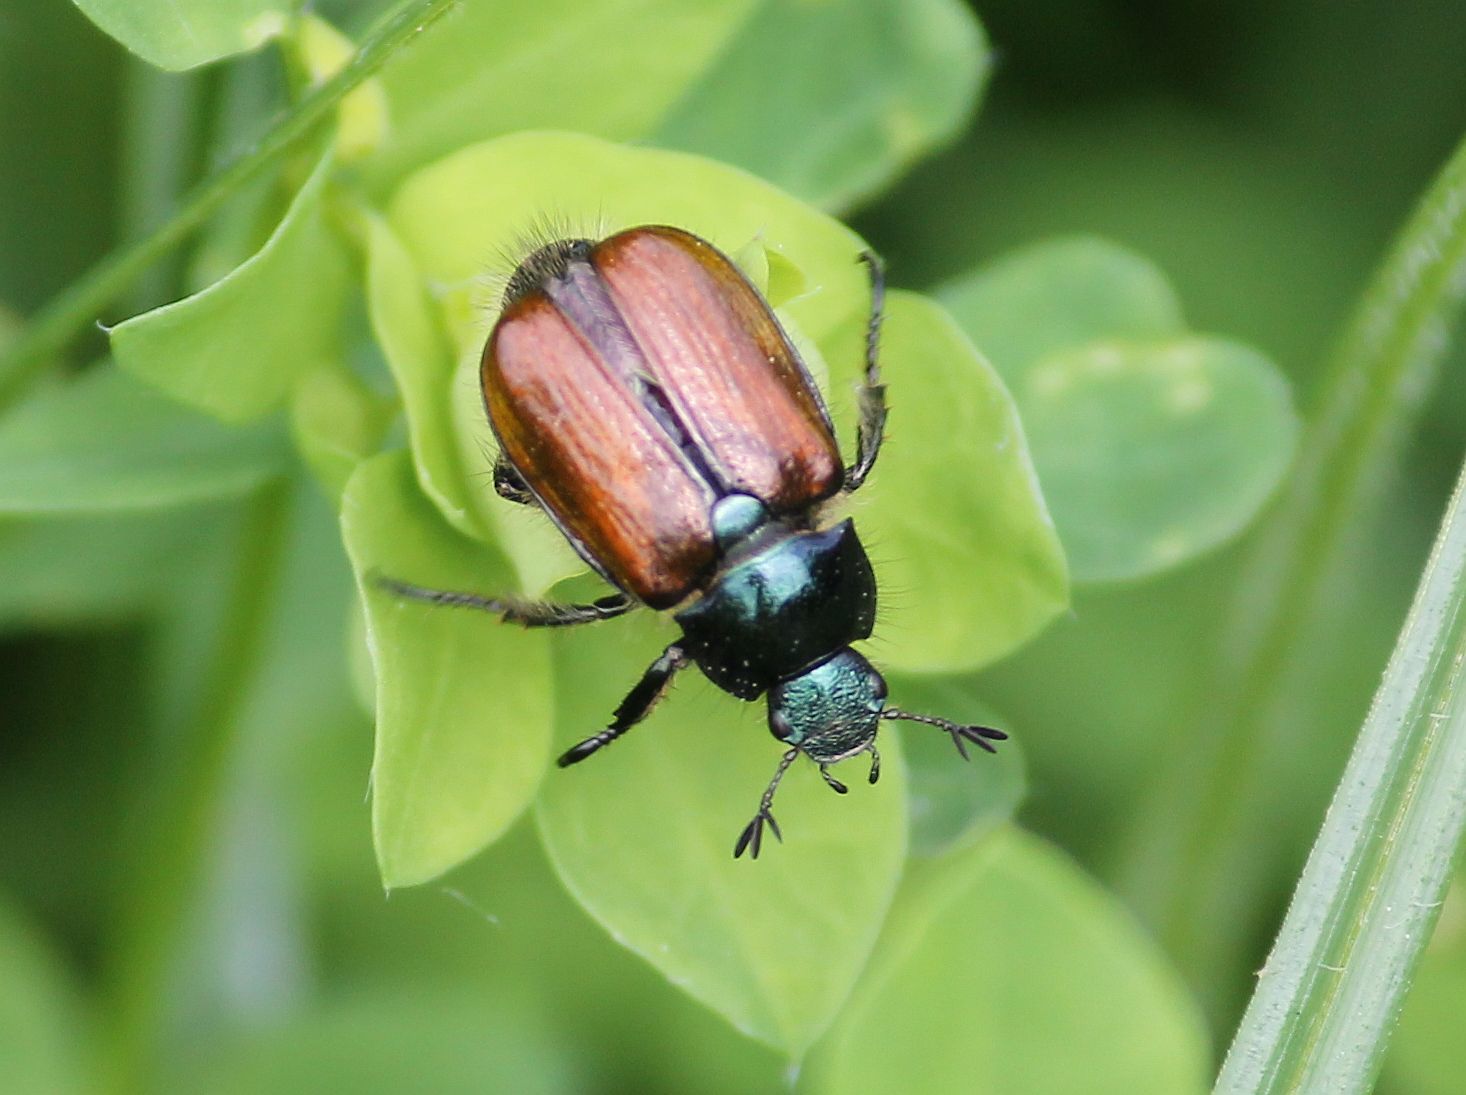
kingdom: Animalia
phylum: Arthropoda
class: Insecta
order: Coleoptera
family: Scarabaeidae
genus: Phyllopertha
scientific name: Phyllopertha horticola
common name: Garden chafer
